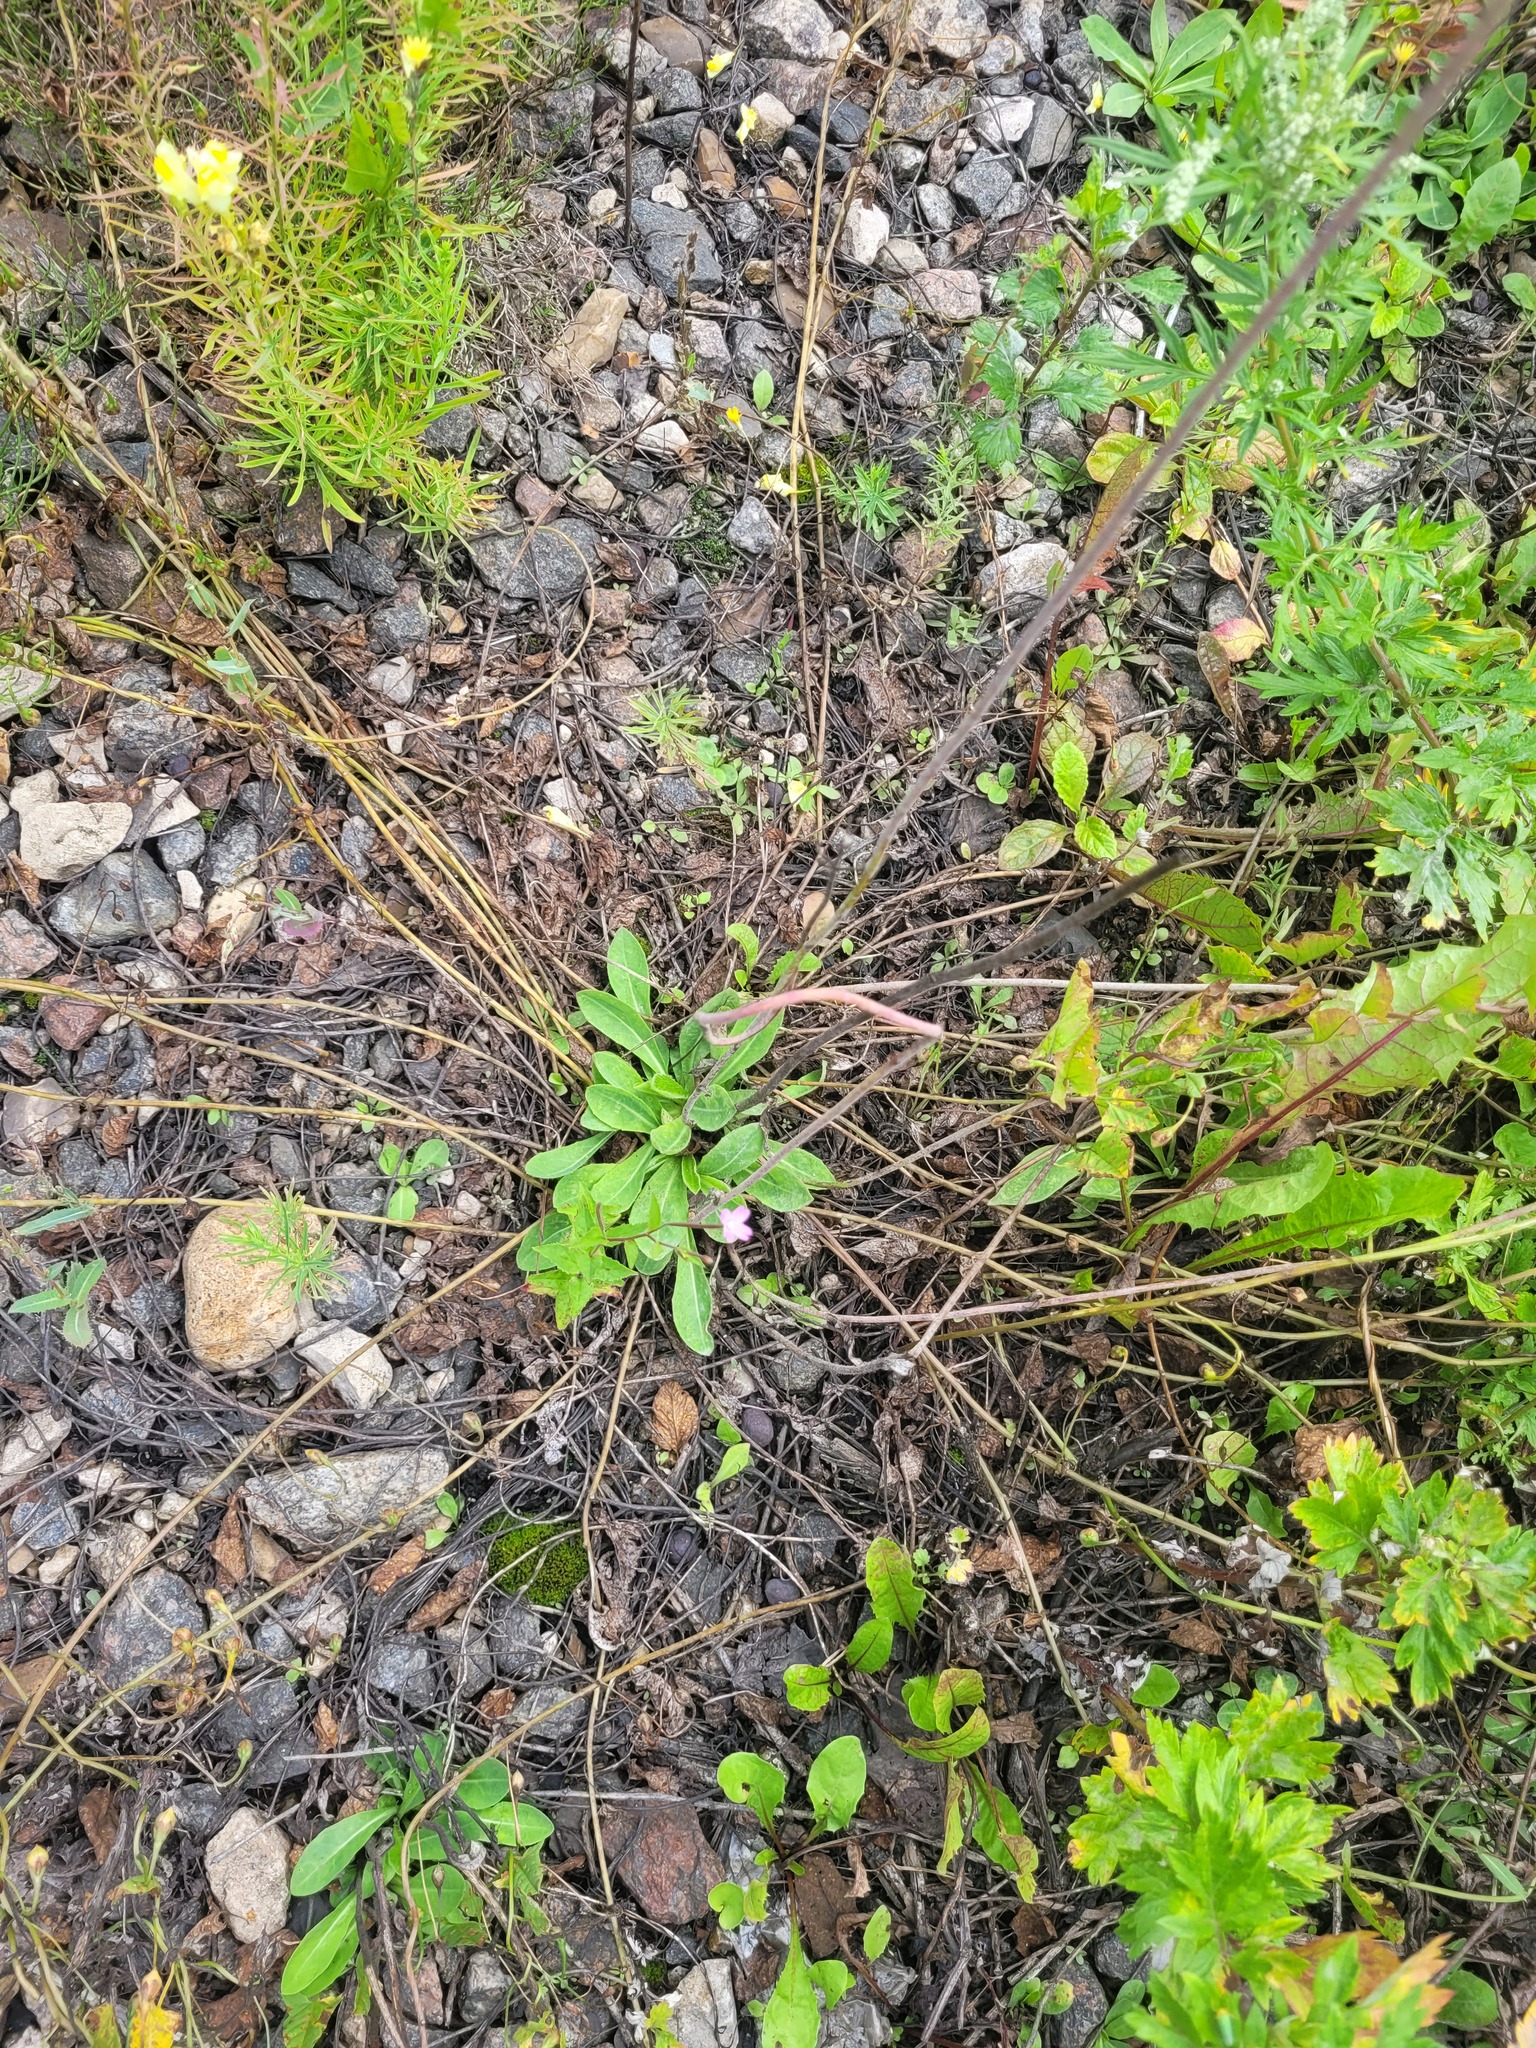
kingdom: Plantae
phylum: Tracheophyta
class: Magnoliopsida
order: Asterales
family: Asteraceae
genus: Pilosella
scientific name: Pilosella
